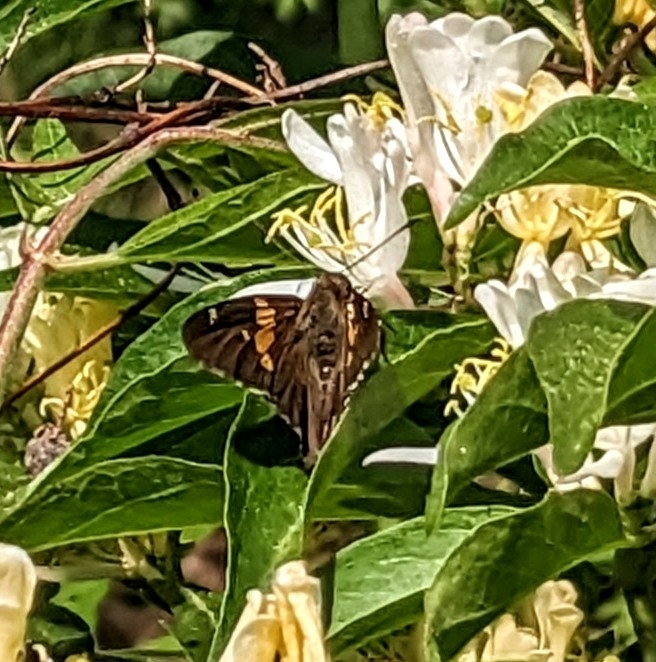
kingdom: Animalia
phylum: Arthropoda
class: Insecta
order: Lepidoptera
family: Hesperiidae
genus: Epargyreus
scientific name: Epargyreus clarus
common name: Silver-spotted skipper
